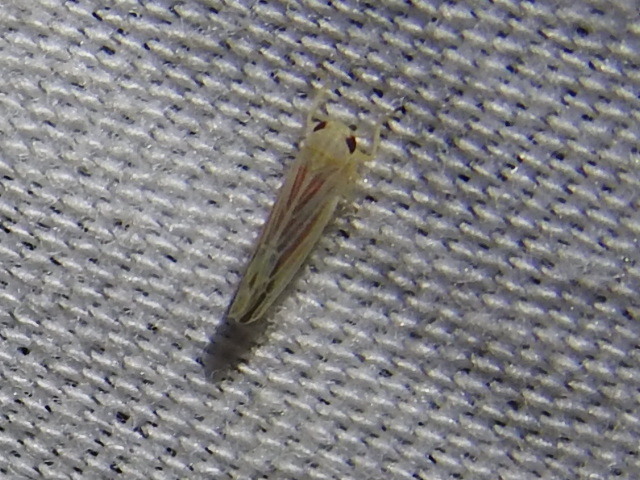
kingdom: Animalia
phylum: Arthropoda
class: Insecta
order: Hemiptera
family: Cicadellidae
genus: Balclutha
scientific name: Balclutha rubrostriata
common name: Red-streaked leafhopper
